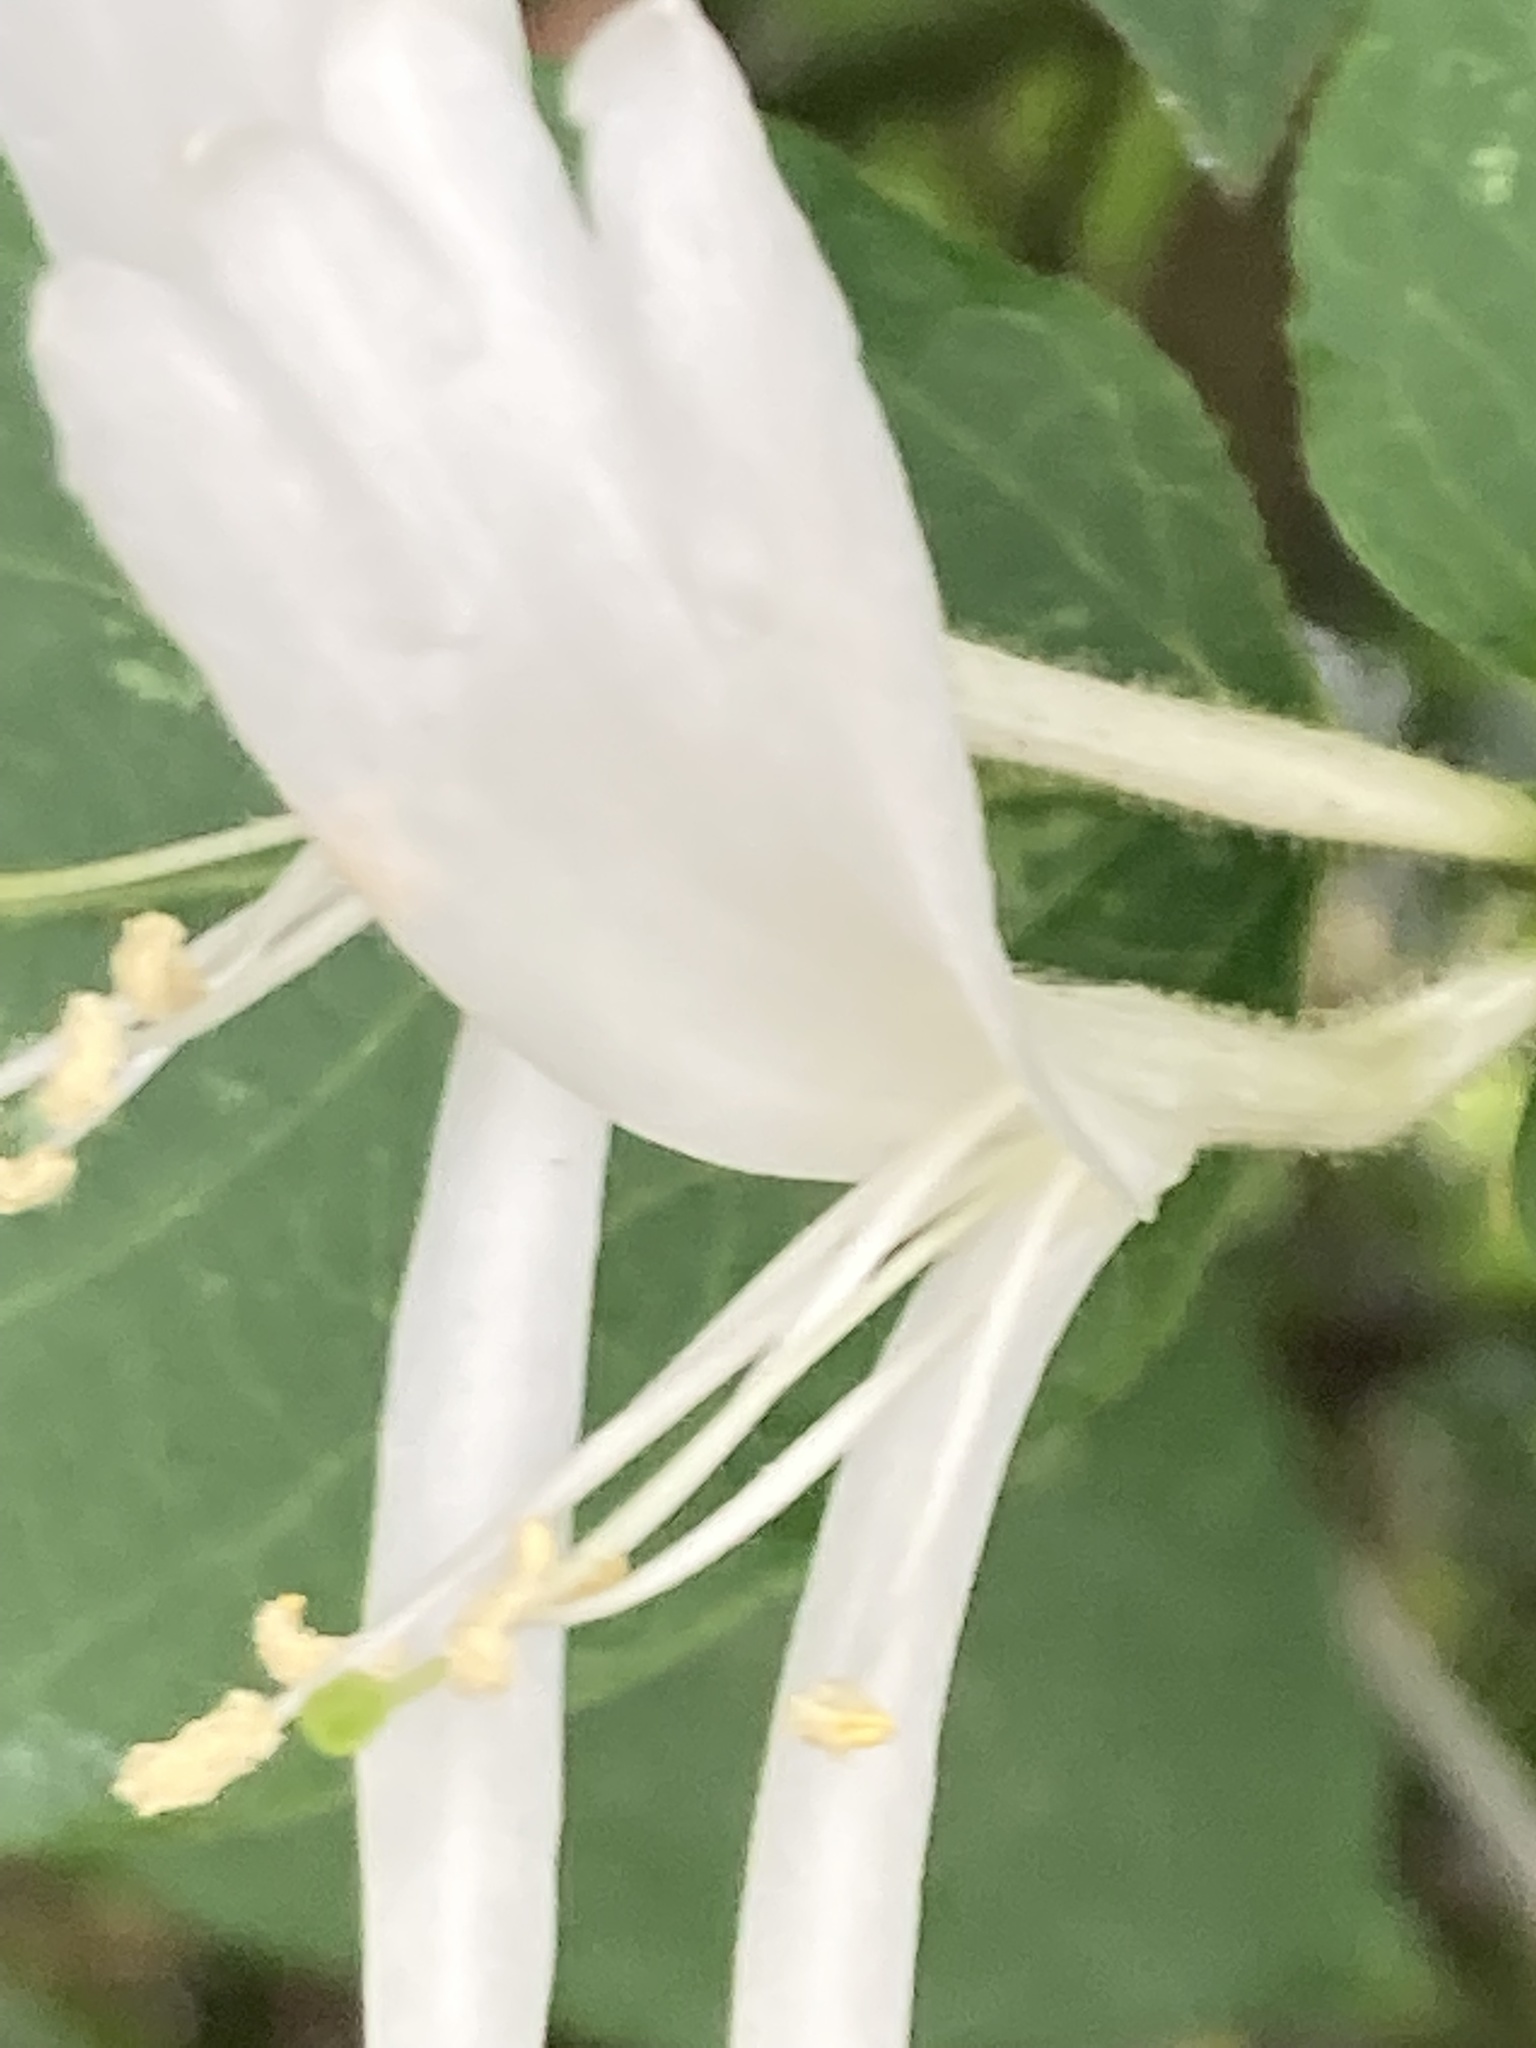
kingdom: Plantae
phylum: Tracheophyta
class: Magnoliopsida
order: Dipsacales
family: Caprifoliaceae
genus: Lonicera
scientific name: Lonicera japonica
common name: Japanese honeysuckle
